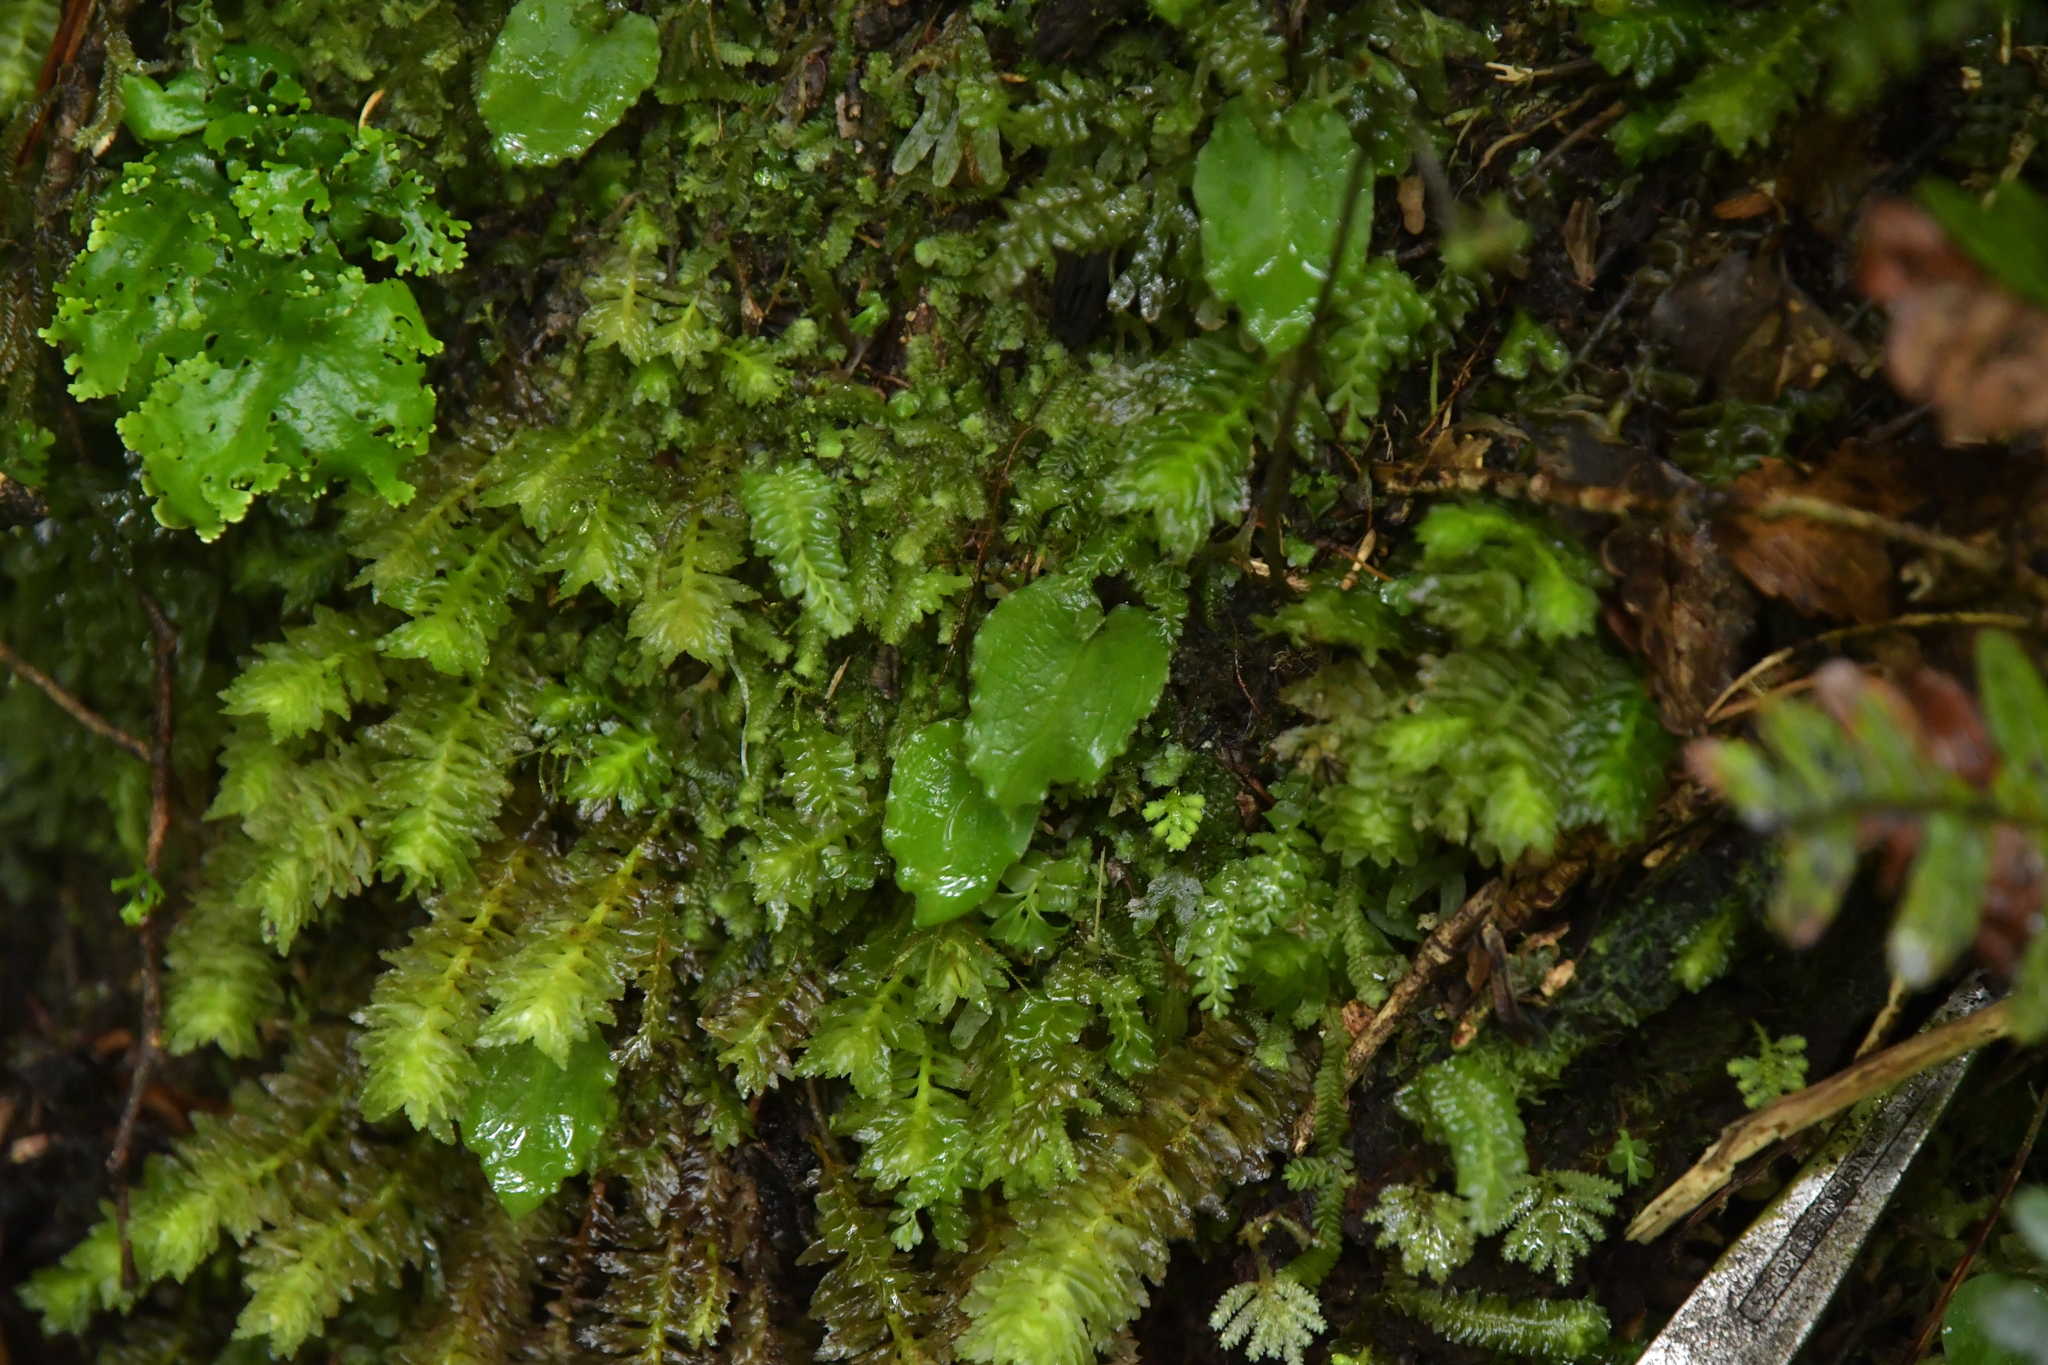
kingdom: Plantae
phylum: Tracheophyta
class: Liliopsida
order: Asparagales
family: Orchidaceae
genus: Corybas
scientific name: Corybas oblongus
